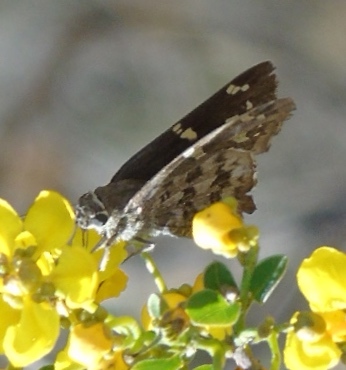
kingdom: Animalia
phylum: Arthropoda
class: Insecta
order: Lepidoptera
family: Hesperiidae
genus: Thorybes
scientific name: Thorybes
